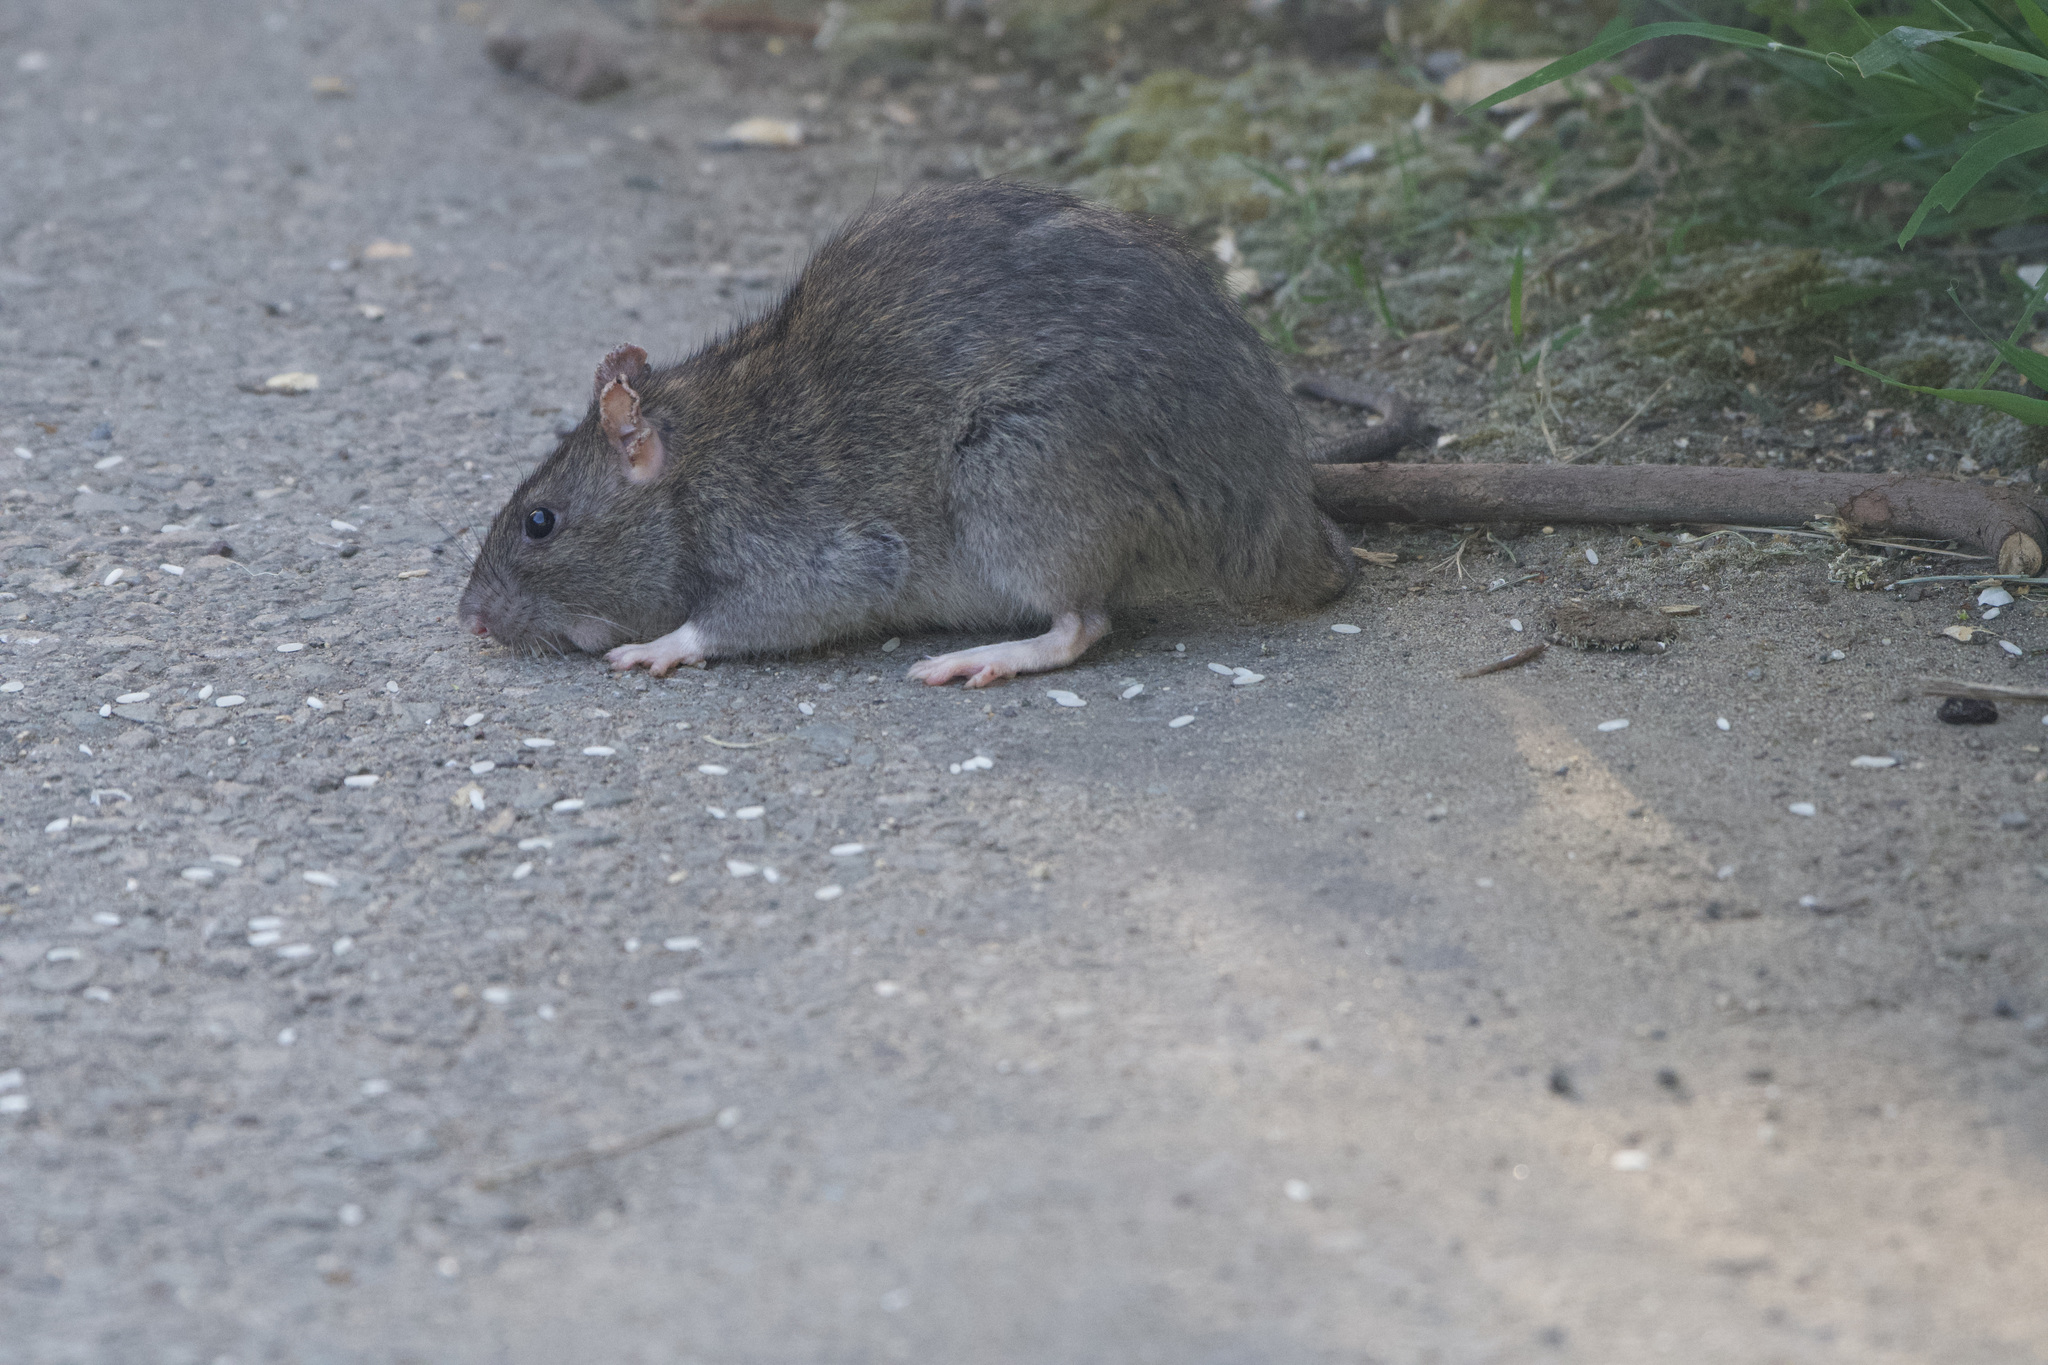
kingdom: Animalia
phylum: Chordata
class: Mammalia
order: Rodentia
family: Muridae
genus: Rattus
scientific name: Rattus norvegicus
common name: Brown rat
